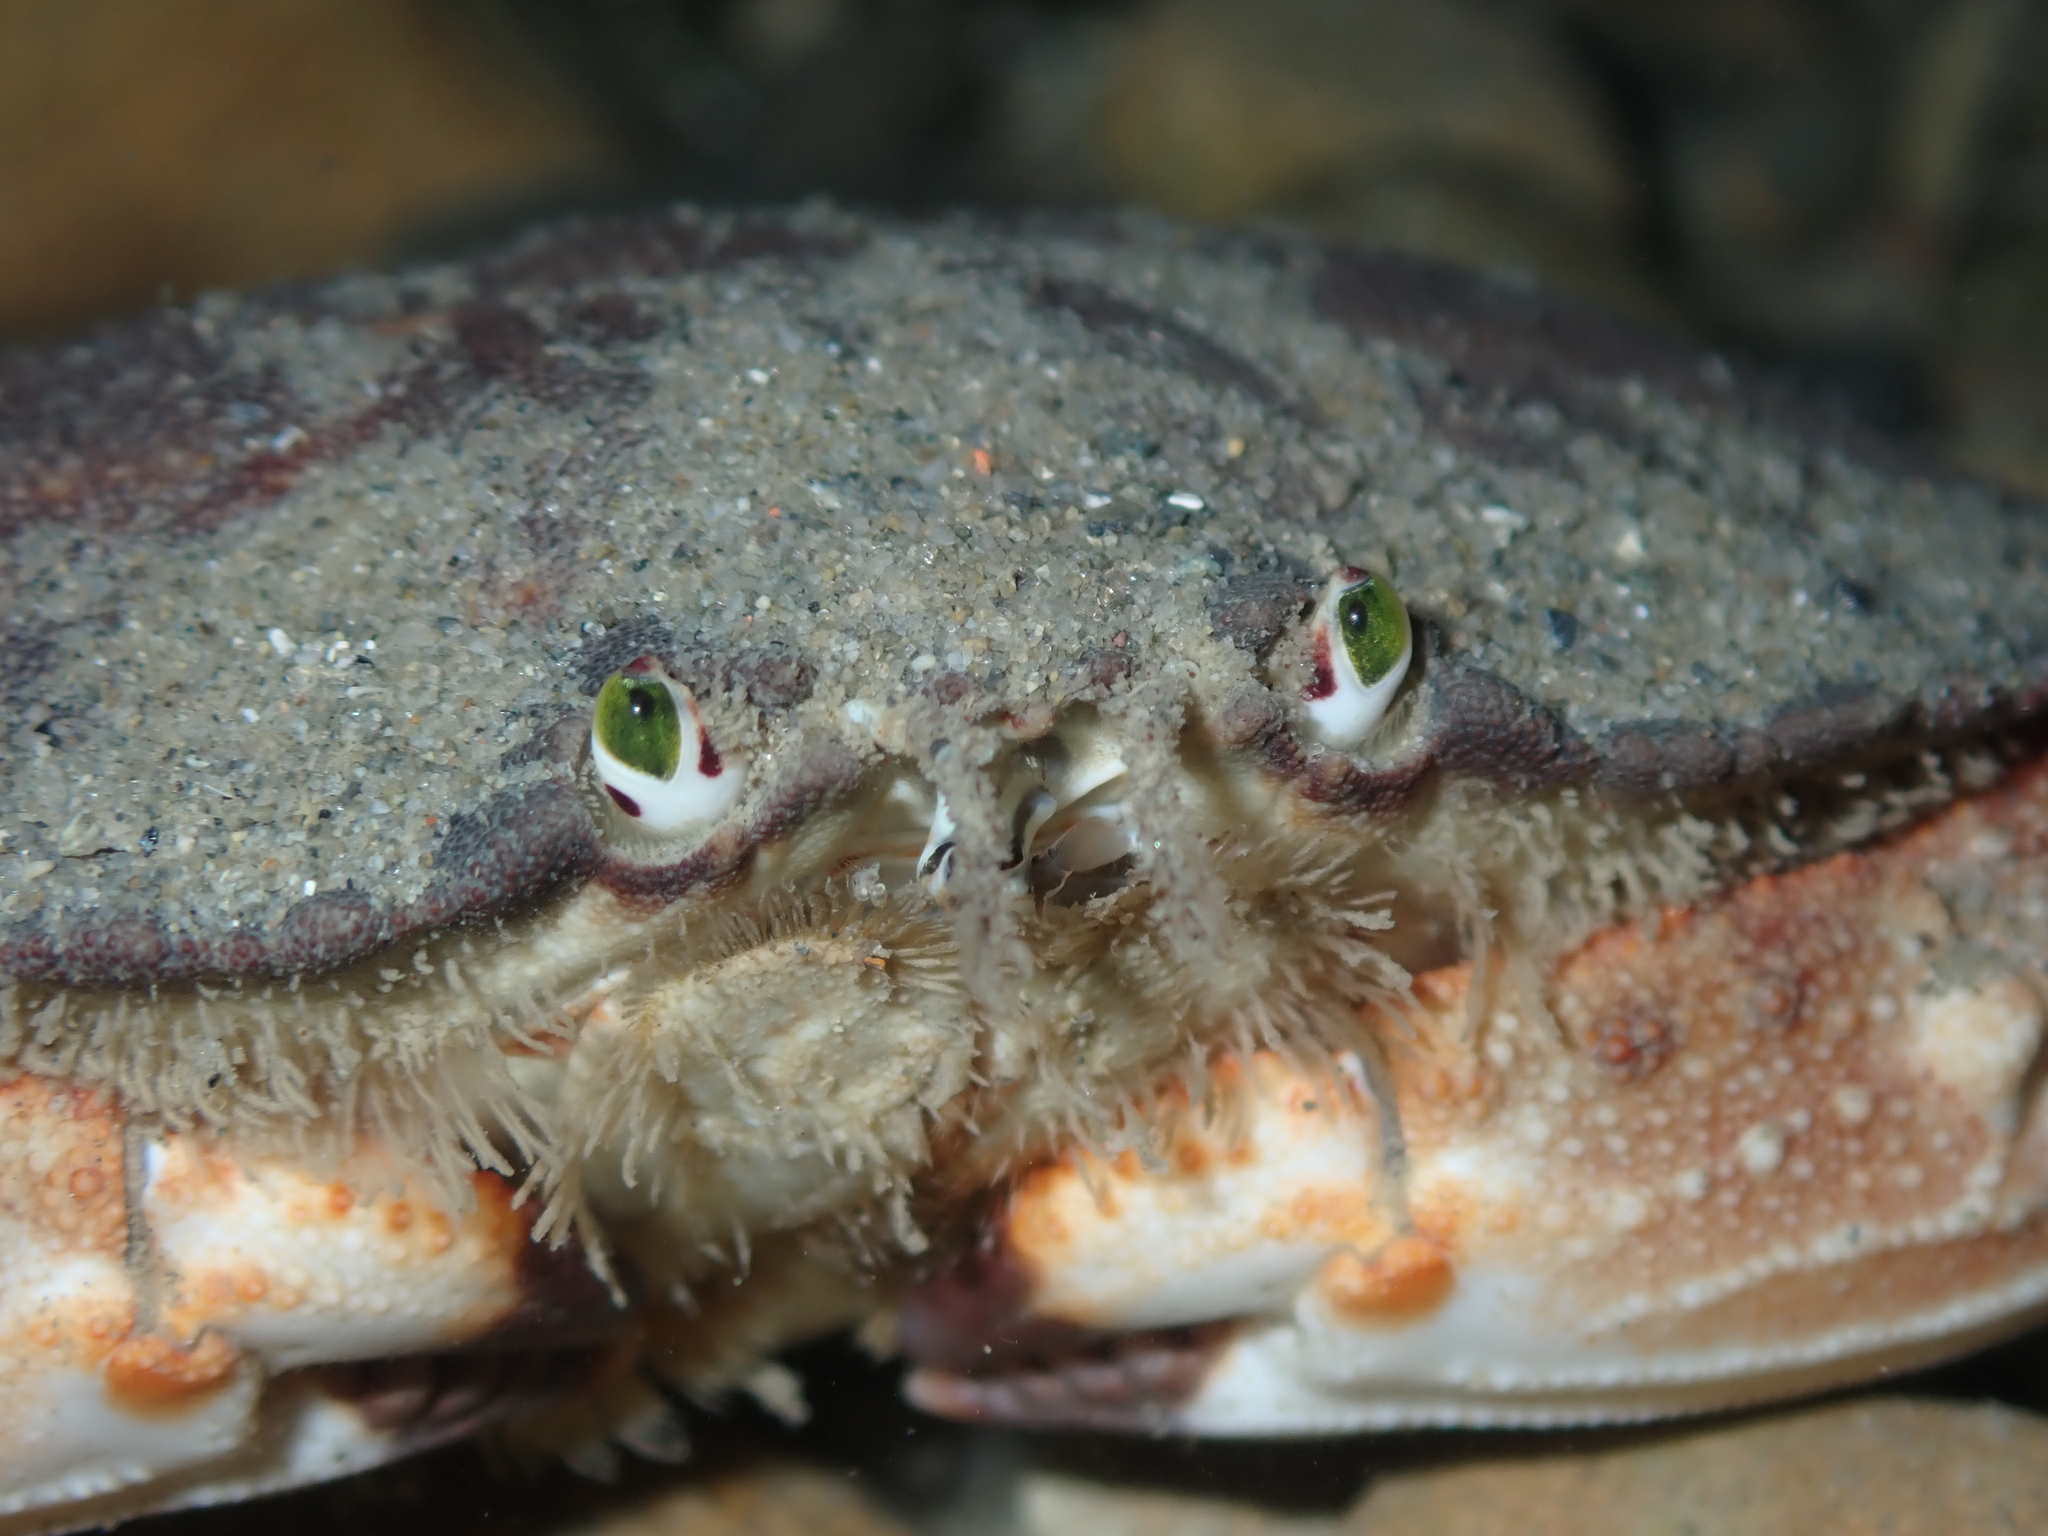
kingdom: Animalia
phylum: Arthropoda
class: Malacostraca
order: Decapoda
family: Cancridae
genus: Metacarcinus
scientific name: Metacarcinus novaezelandiae
